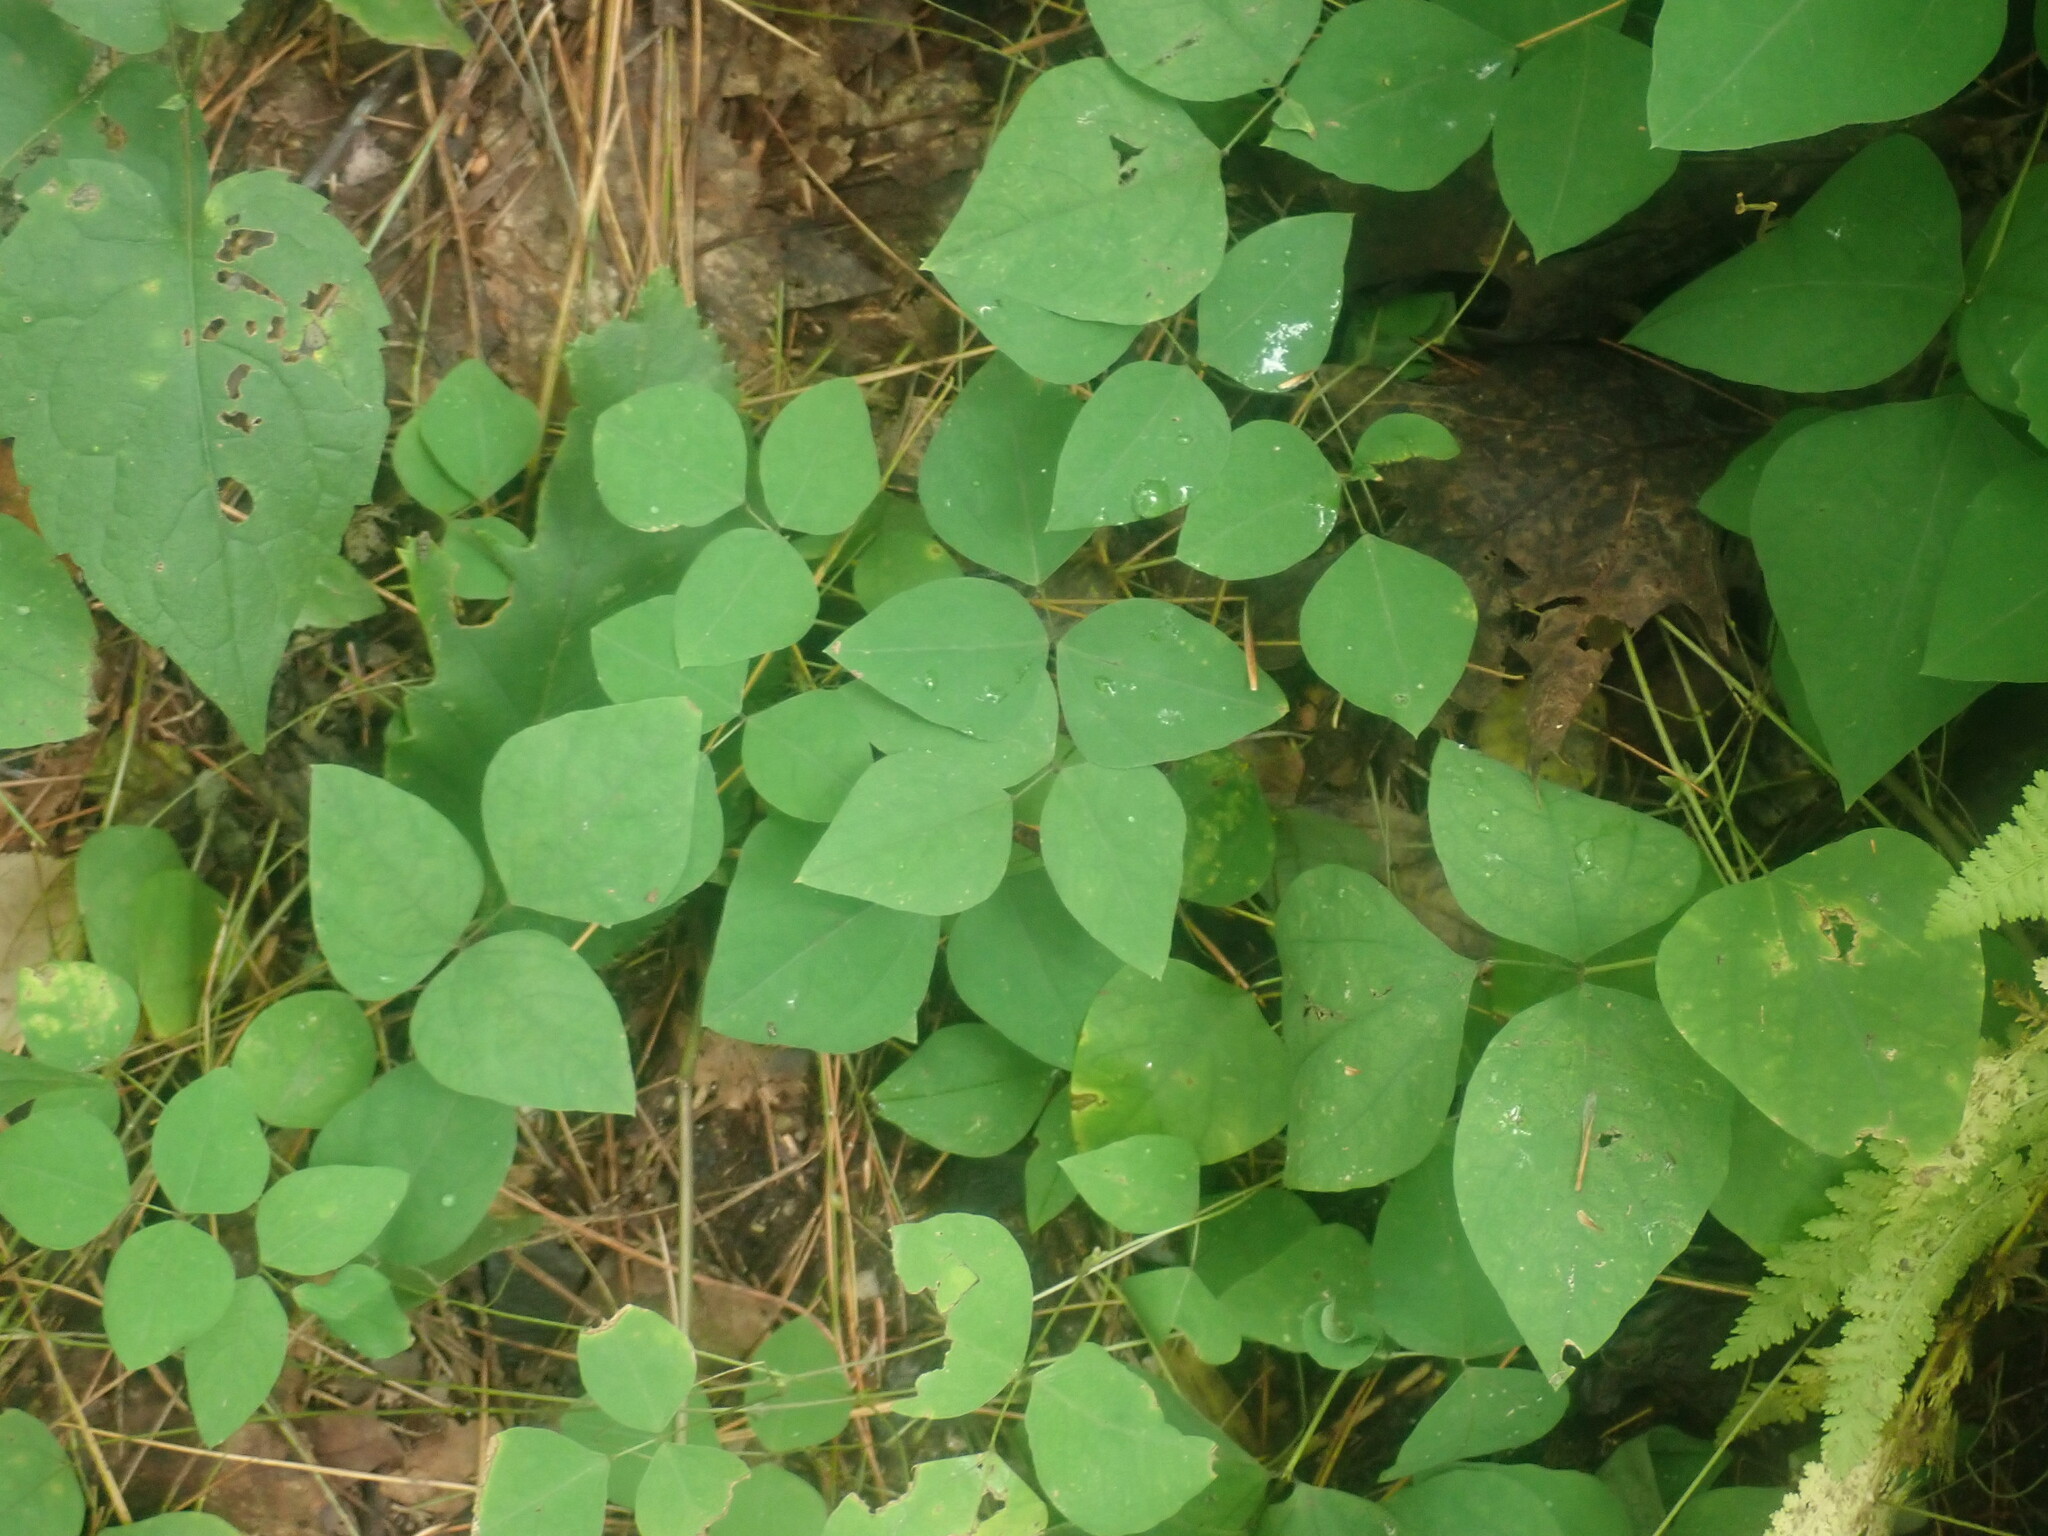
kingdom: Plantae
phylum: Tracheophyta
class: Magnoliopsida
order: Fabales
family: Fabaceae
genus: Amphicarpaea
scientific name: Amphicarpaea bracteata
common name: American hog peanut
